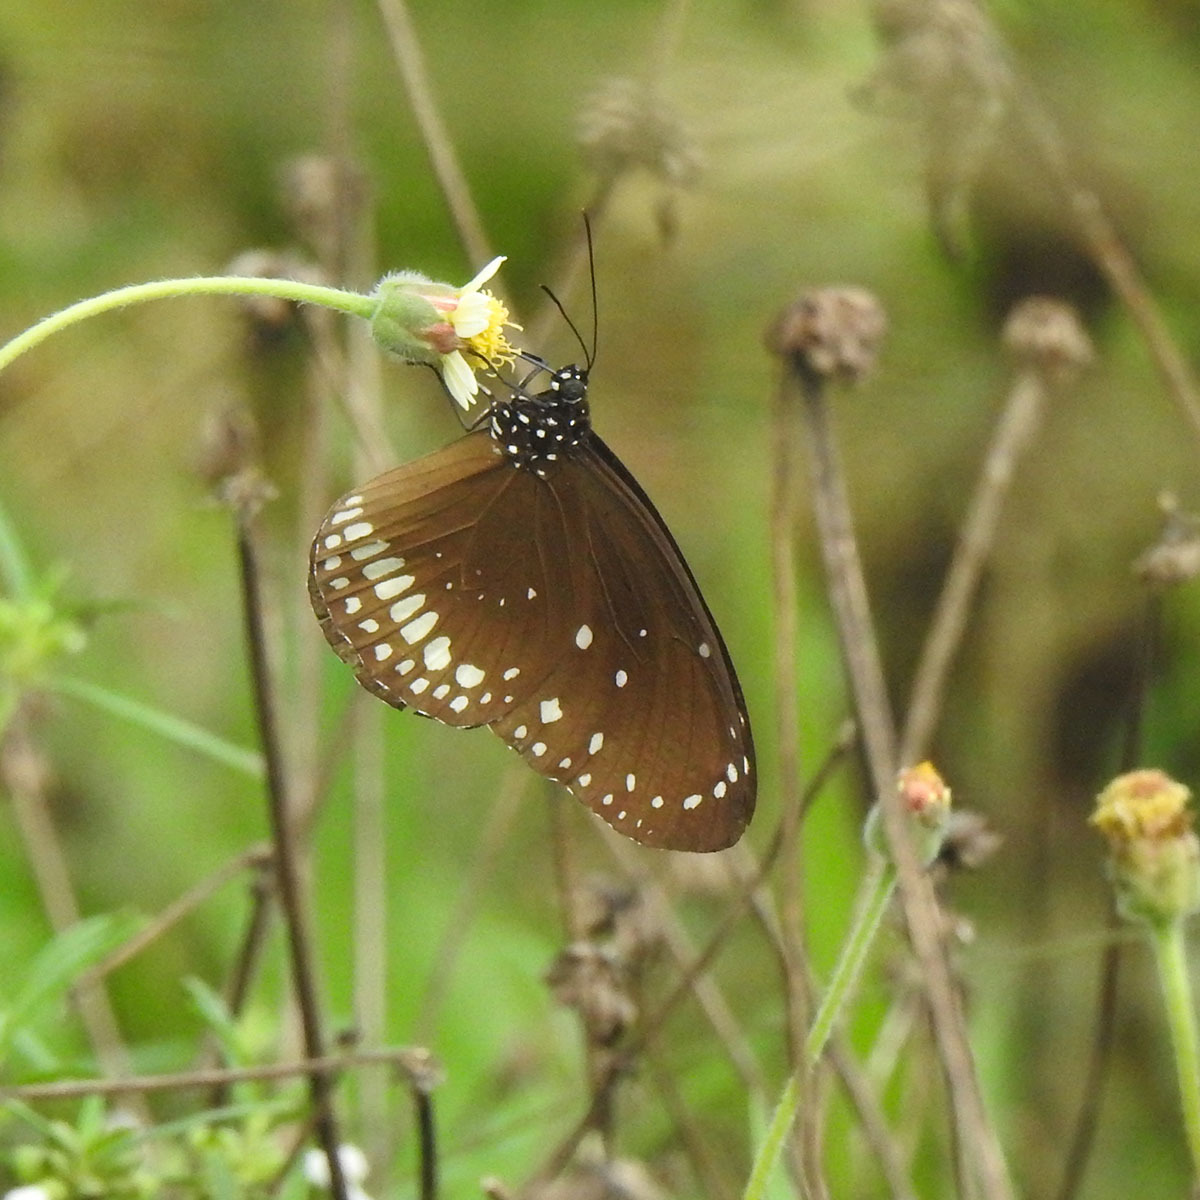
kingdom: Animalia
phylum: Arthropoda
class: Insecta
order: Lepidoptera
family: Nymphalidae
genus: Euploea
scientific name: Euploea core
